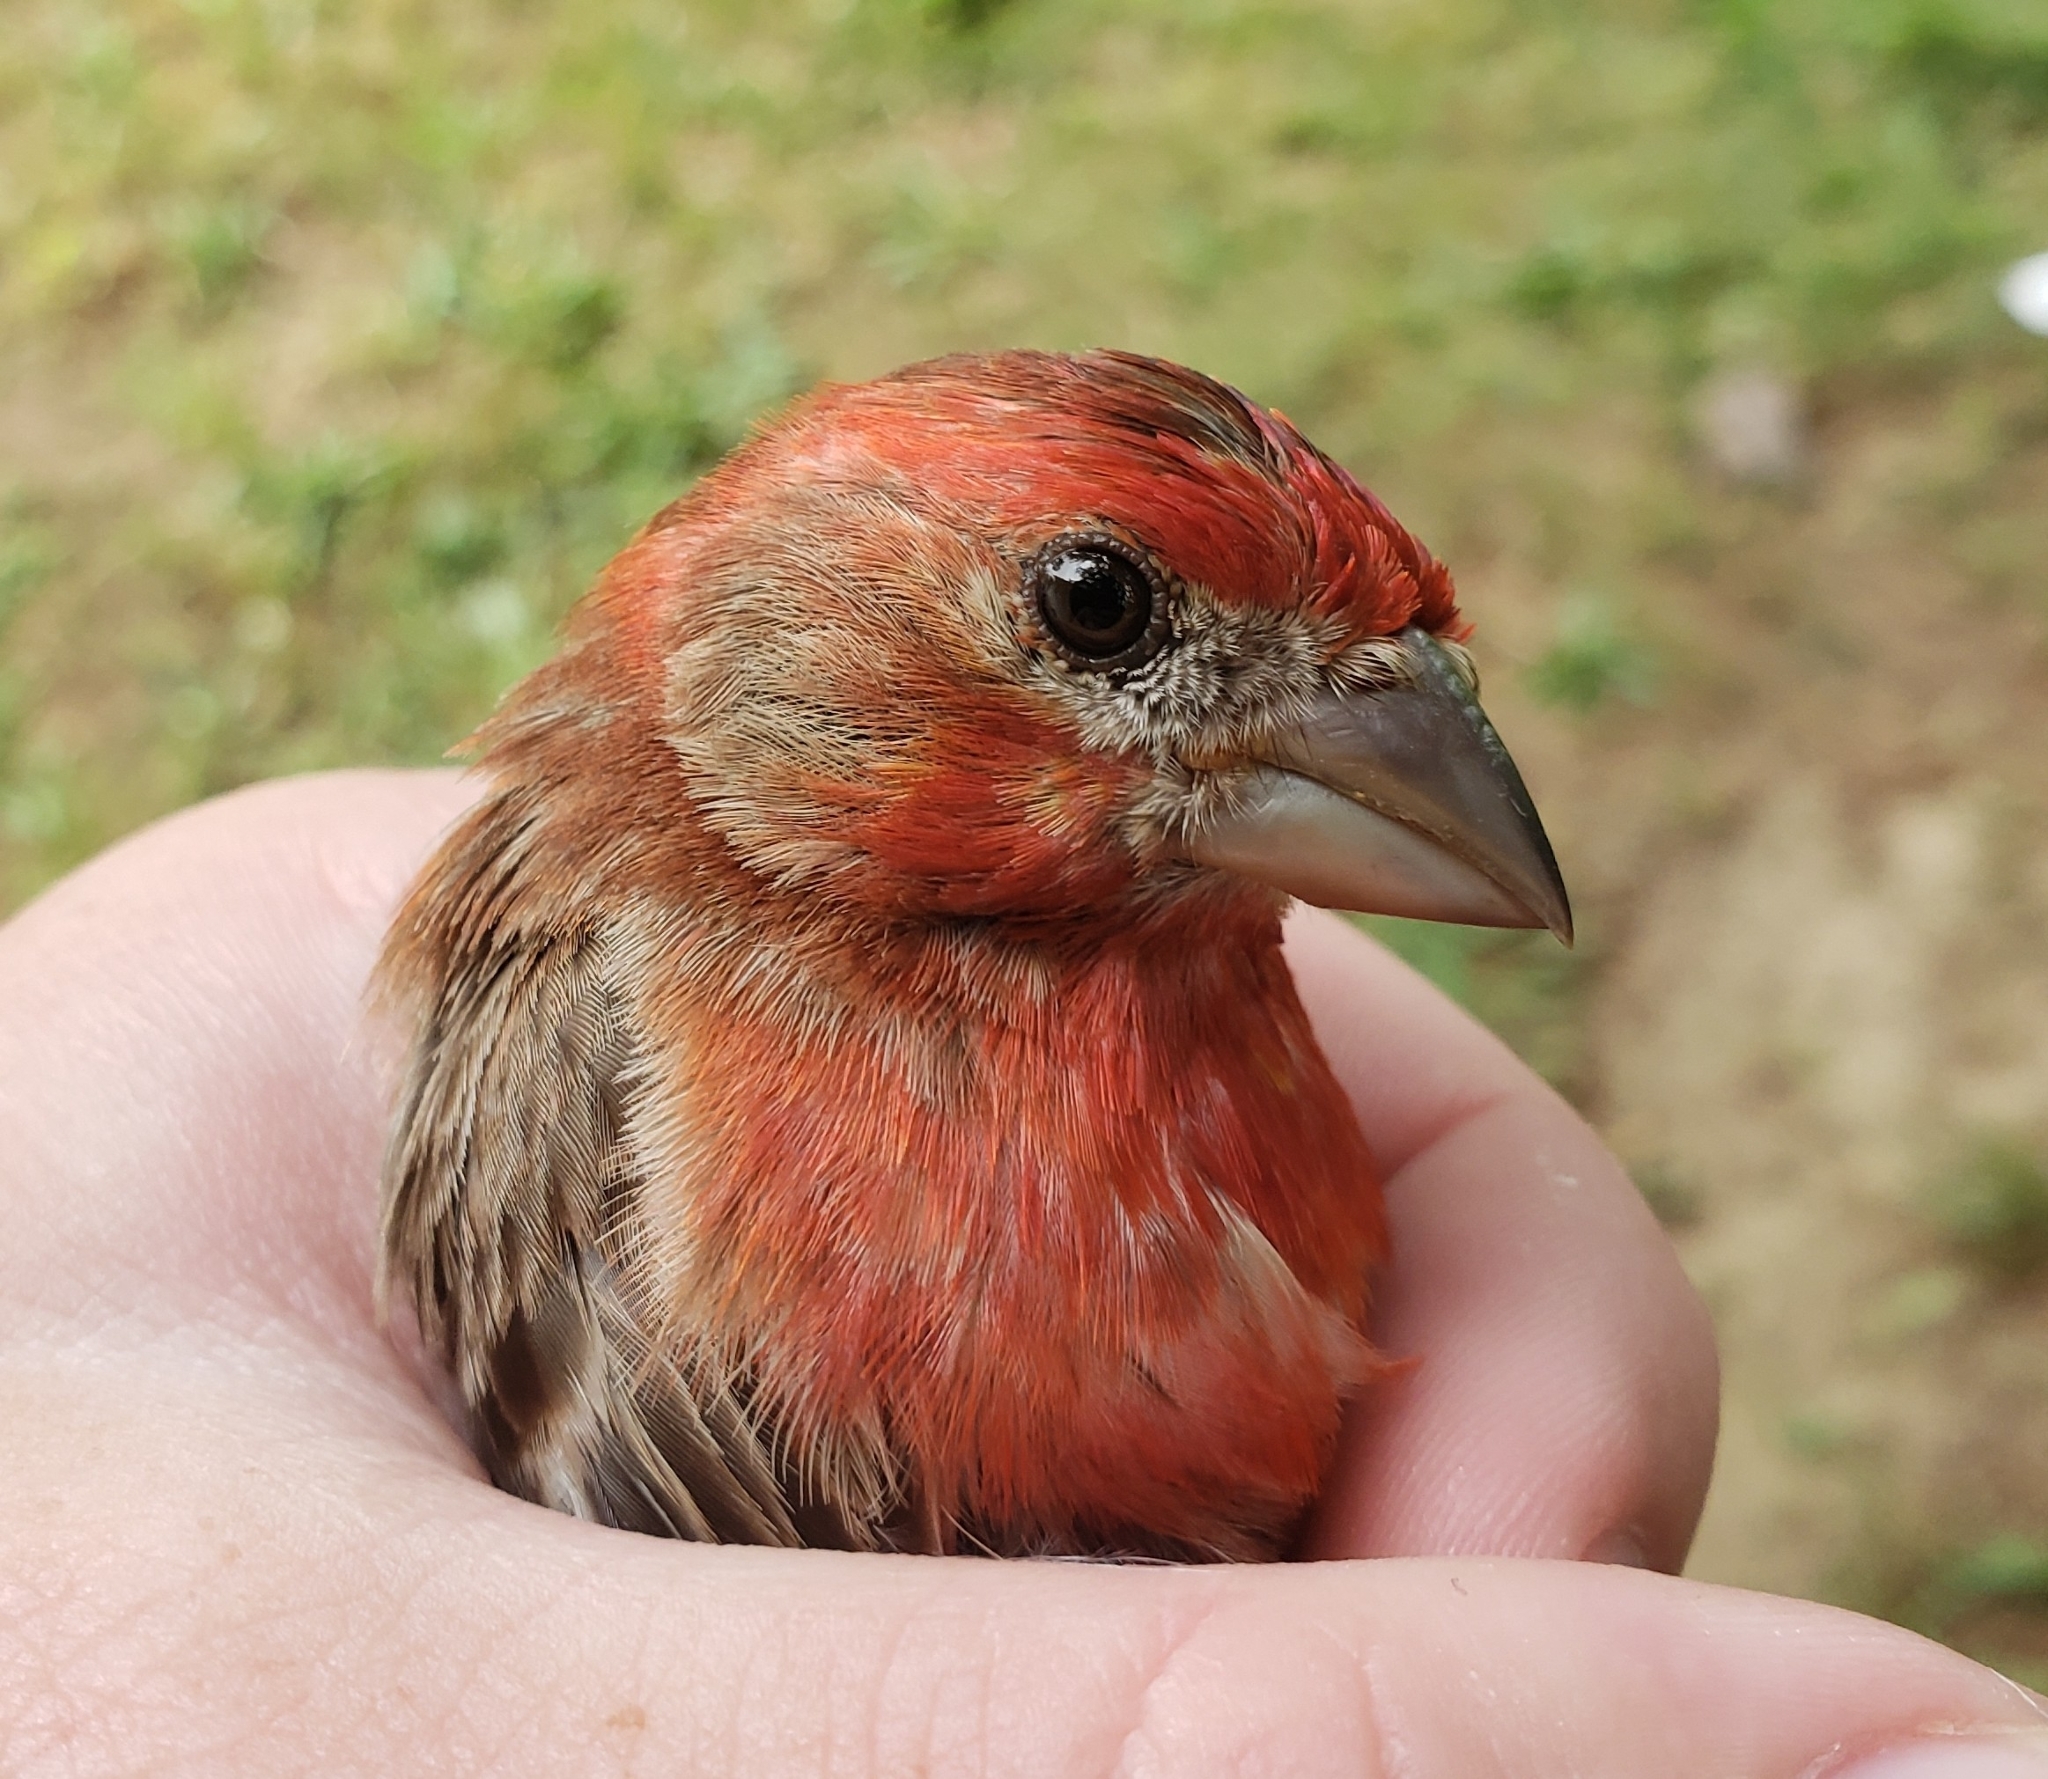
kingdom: Animalia
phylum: Chordata
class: Aves
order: Passeriformes
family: Fringillidae
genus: Haemorhous
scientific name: Haemorhous mexicanus
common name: House finch
